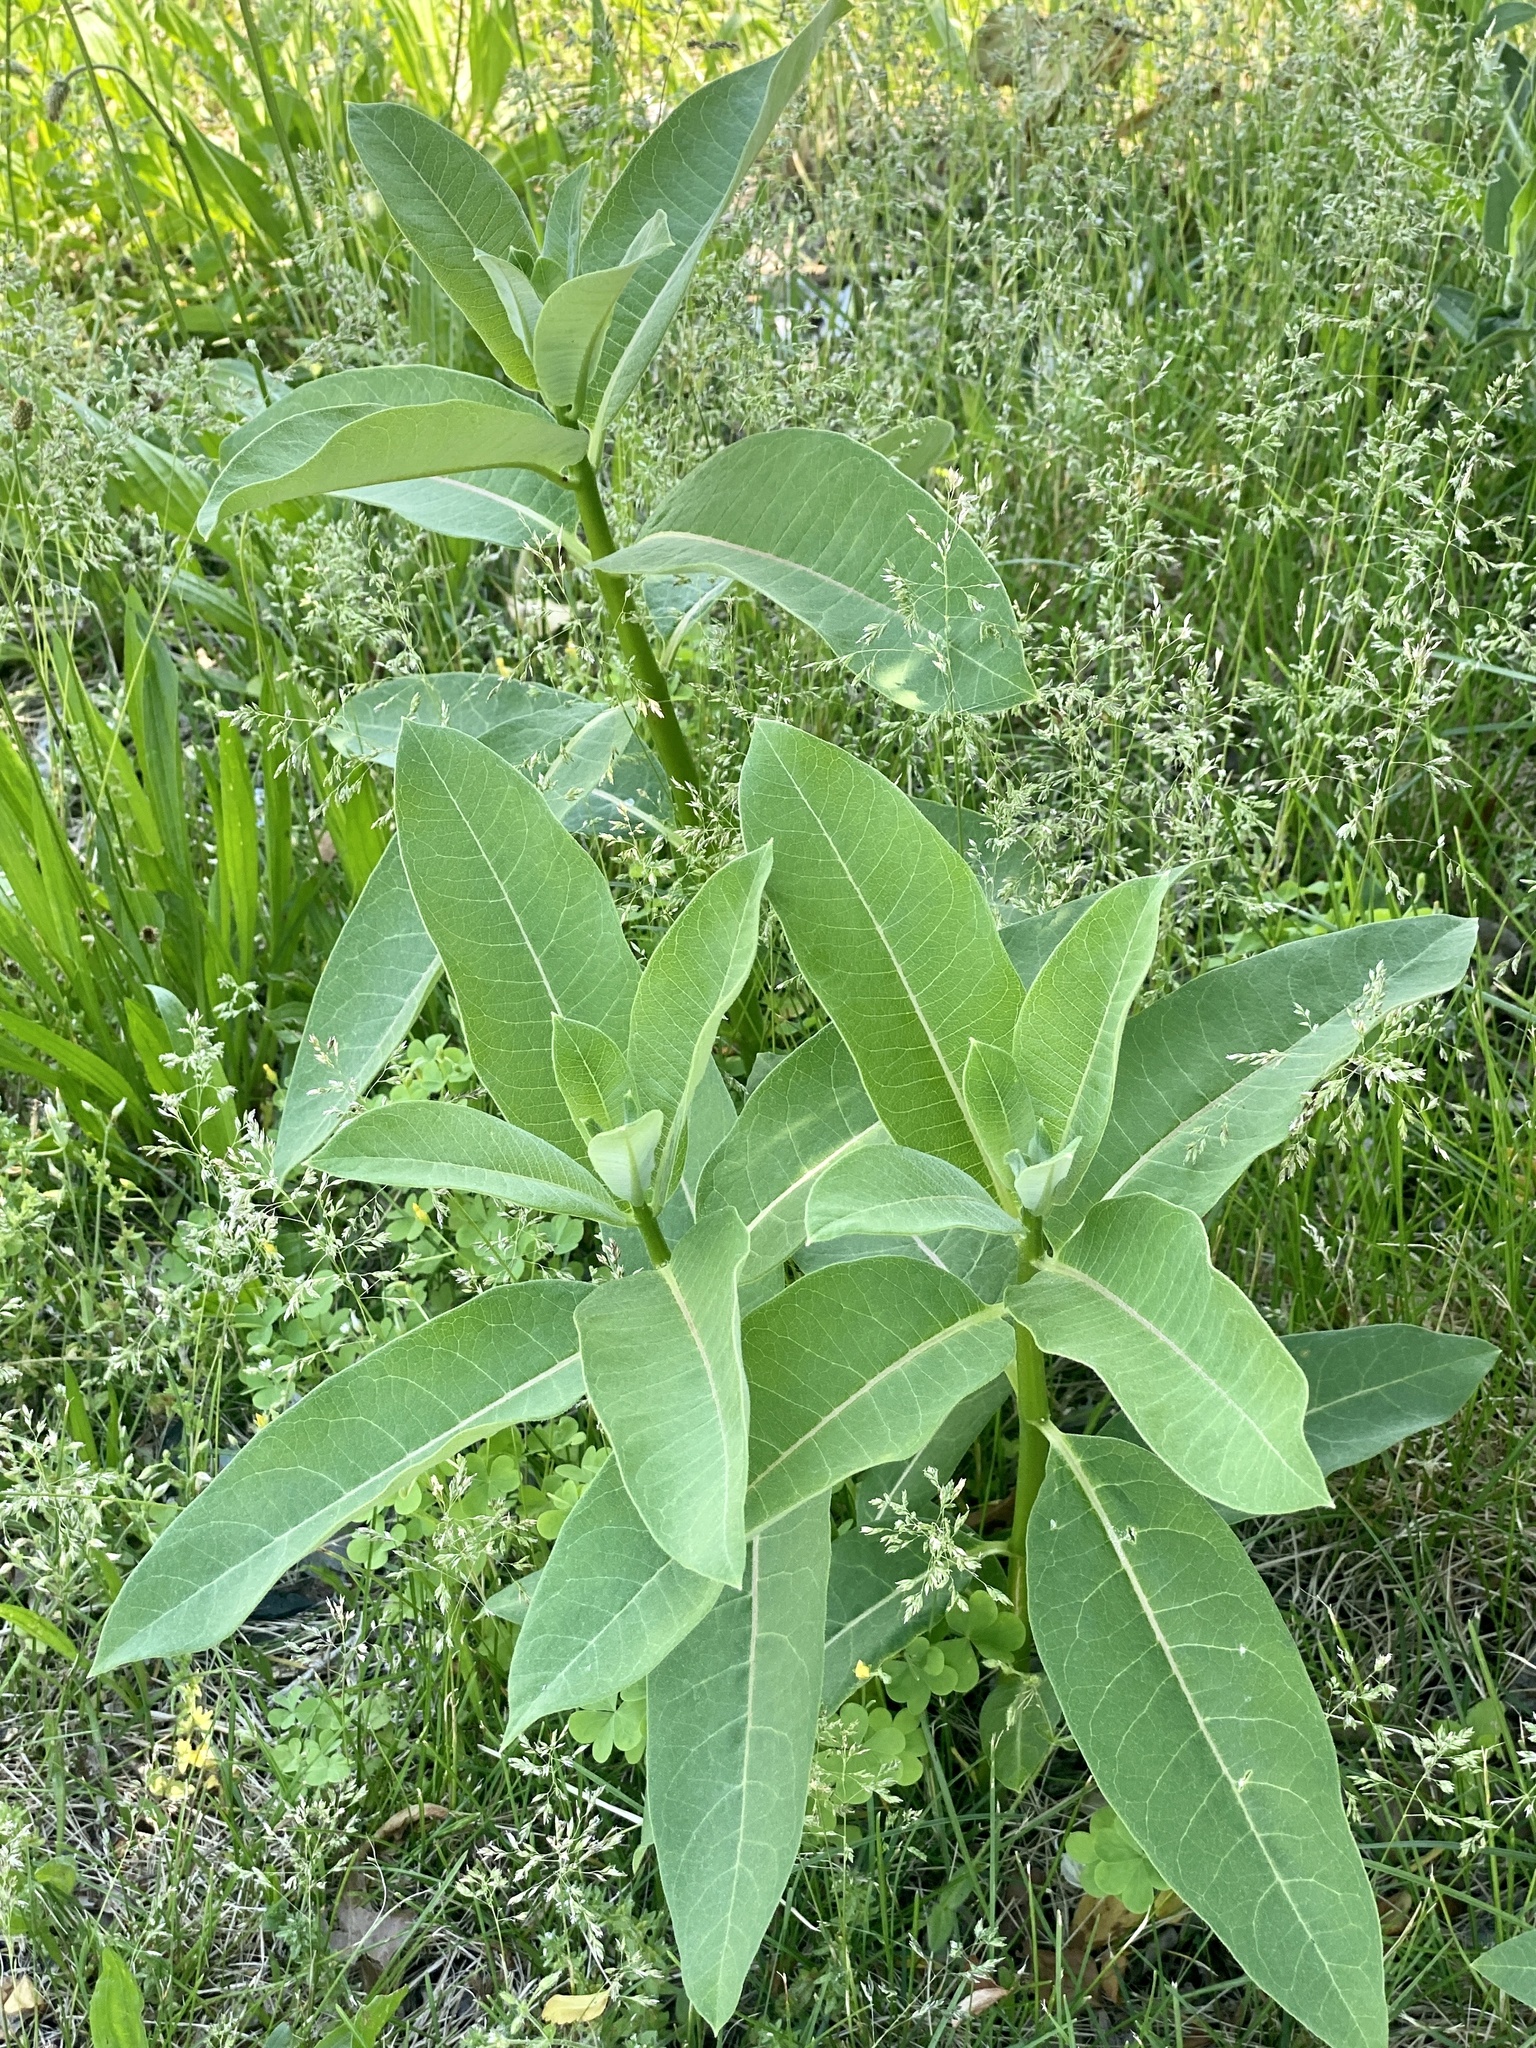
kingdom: Plantae
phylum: Tracheophyta
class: Magnoliopsida
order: Gentianales
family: Apocynaceae
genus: Asclepias
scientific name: Asclepias syriaca
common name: Common milkweed
